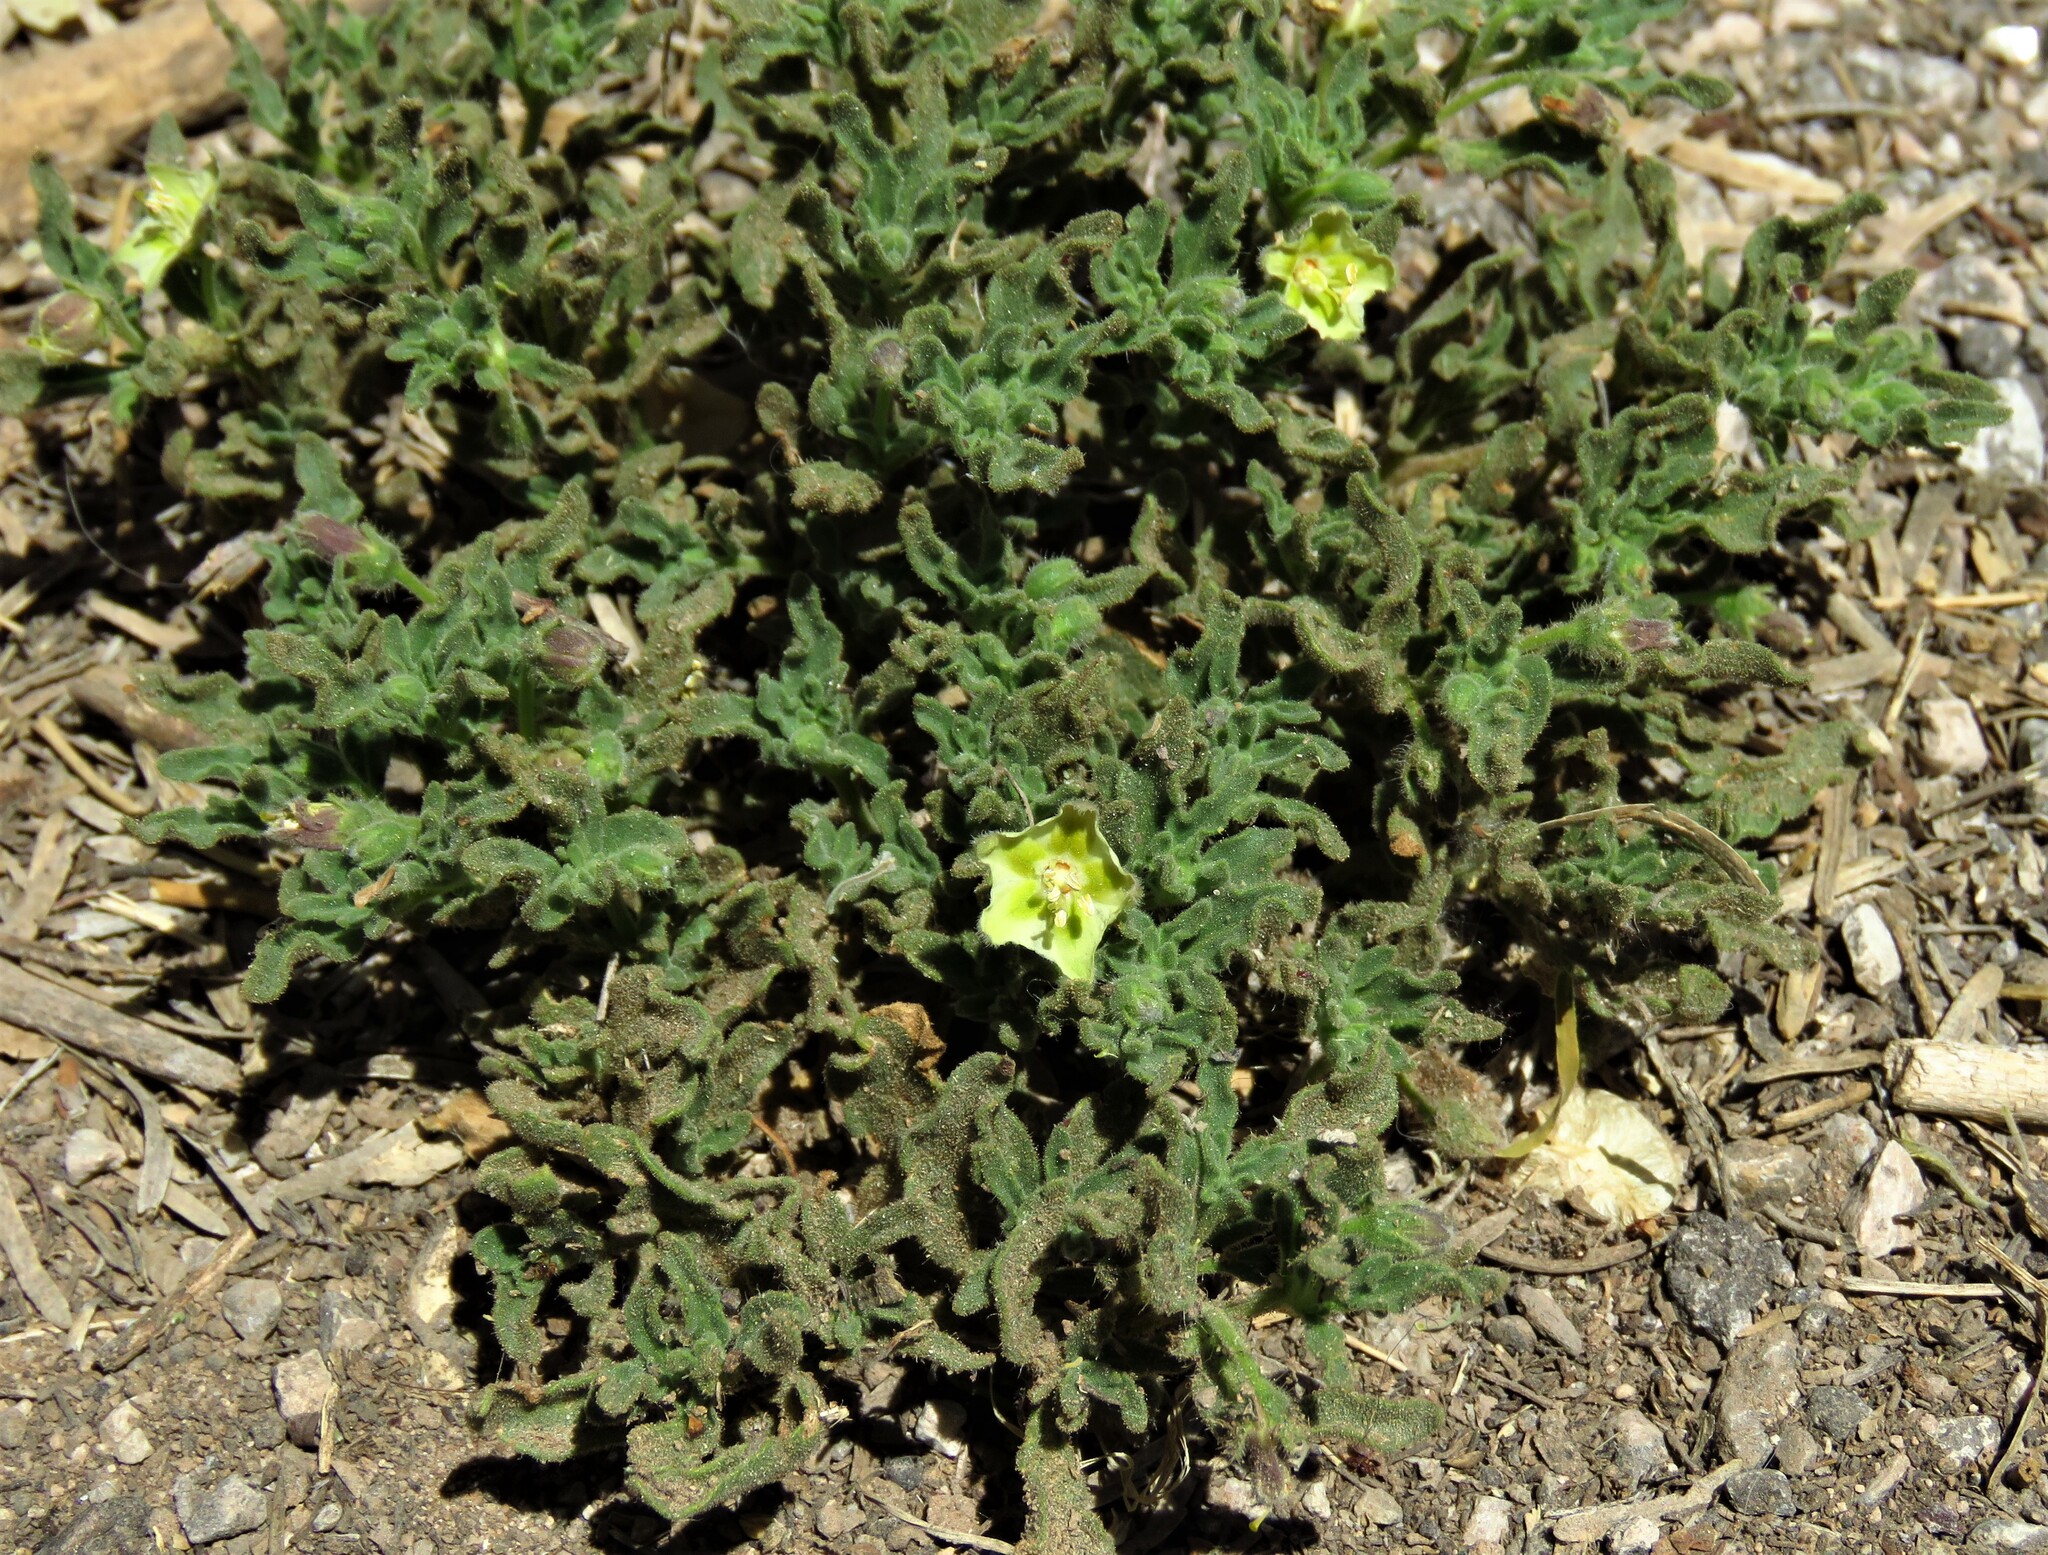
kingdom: Plantae
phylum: Tracheophyta
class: Magnoliopsida
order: Solanales
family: Solanaceae
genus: Chamaesaracha
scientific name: Chamaesaracha sordida
